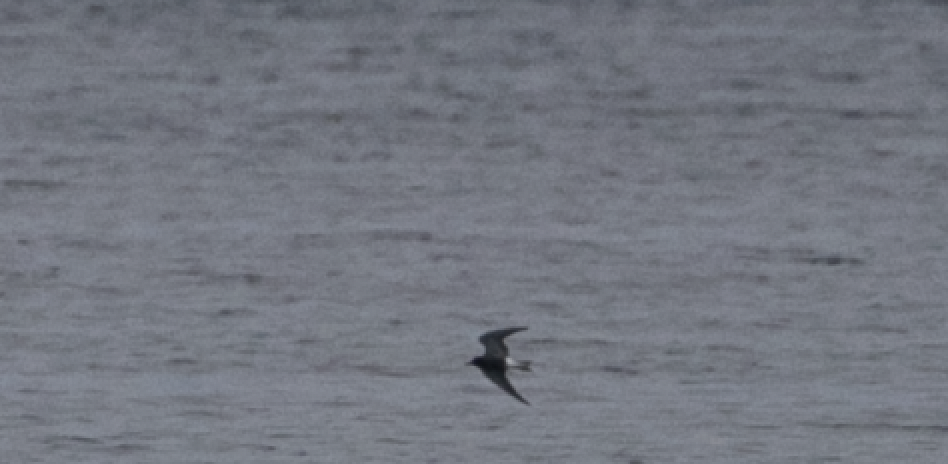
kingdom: Animalia
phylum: Chordata
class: Aves
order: Charadriiformes
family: Laridae
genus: Chlidonias
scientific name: Chlidonias niger
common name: Black tern
